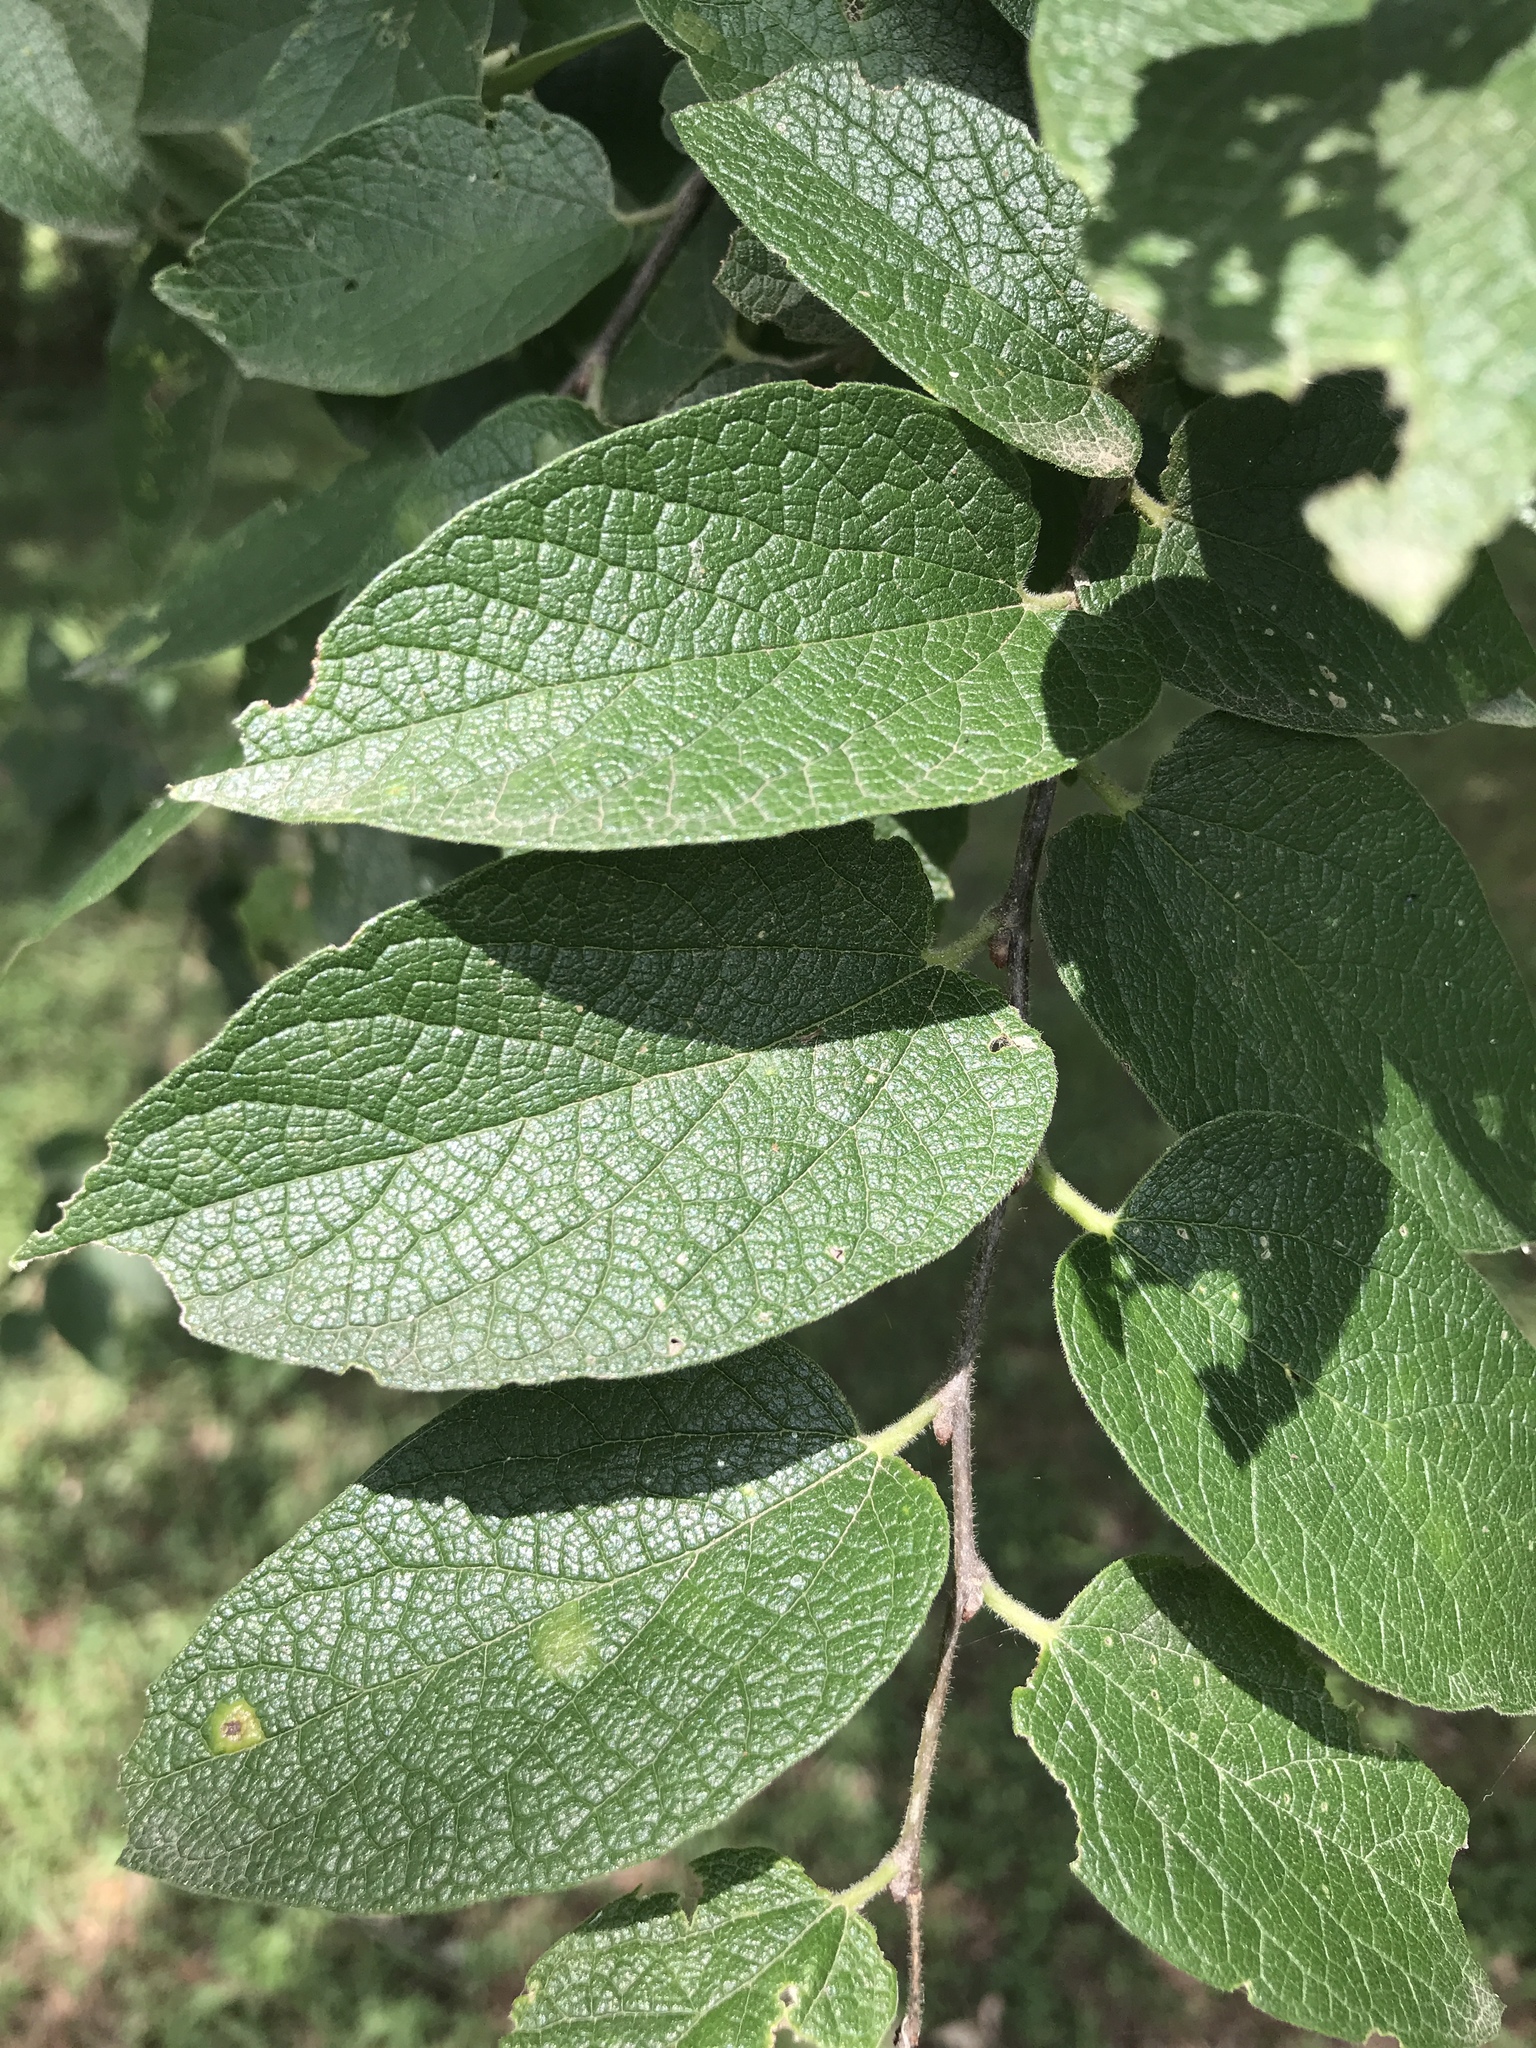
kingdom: Plantae
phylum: Tracheophyta
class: Magnoliopsida
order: Rosales
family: Cannabaceae
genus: Celtis
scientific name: Celtis reticulata
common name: Netleaf hackberry
